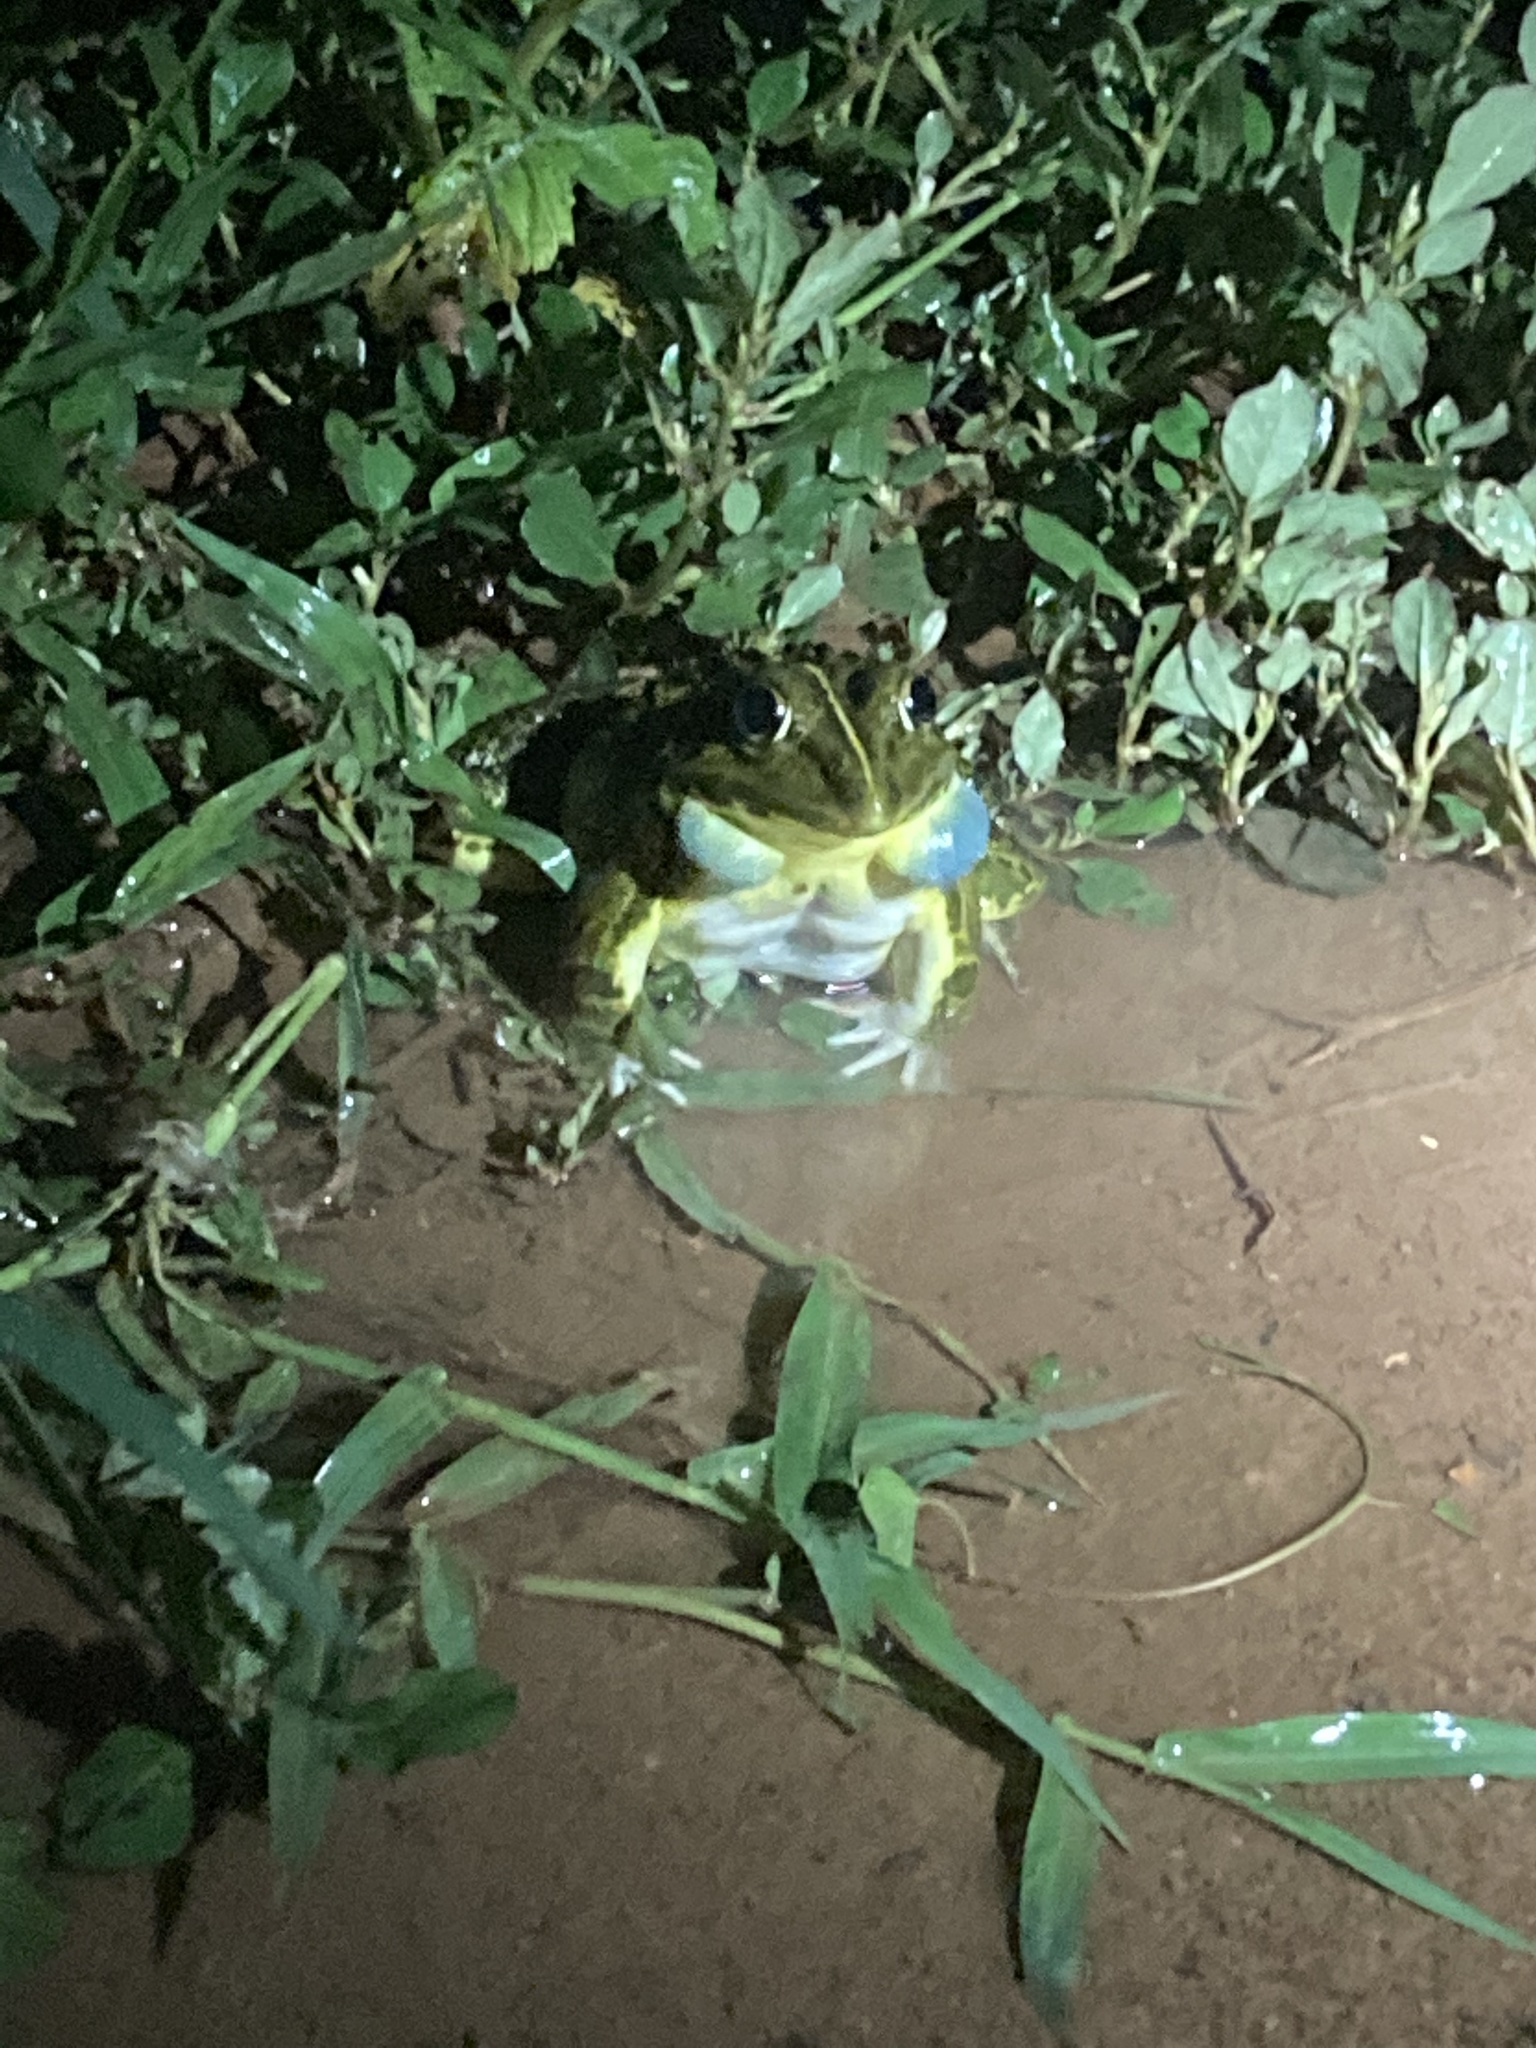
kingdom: Animalia
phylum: Chordata
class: Amphibia
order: Anura
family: Dicroglossidae
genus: Hoplobatrachus
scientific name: Hoplobatrachus tigerinus
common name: Indian bullfrog
